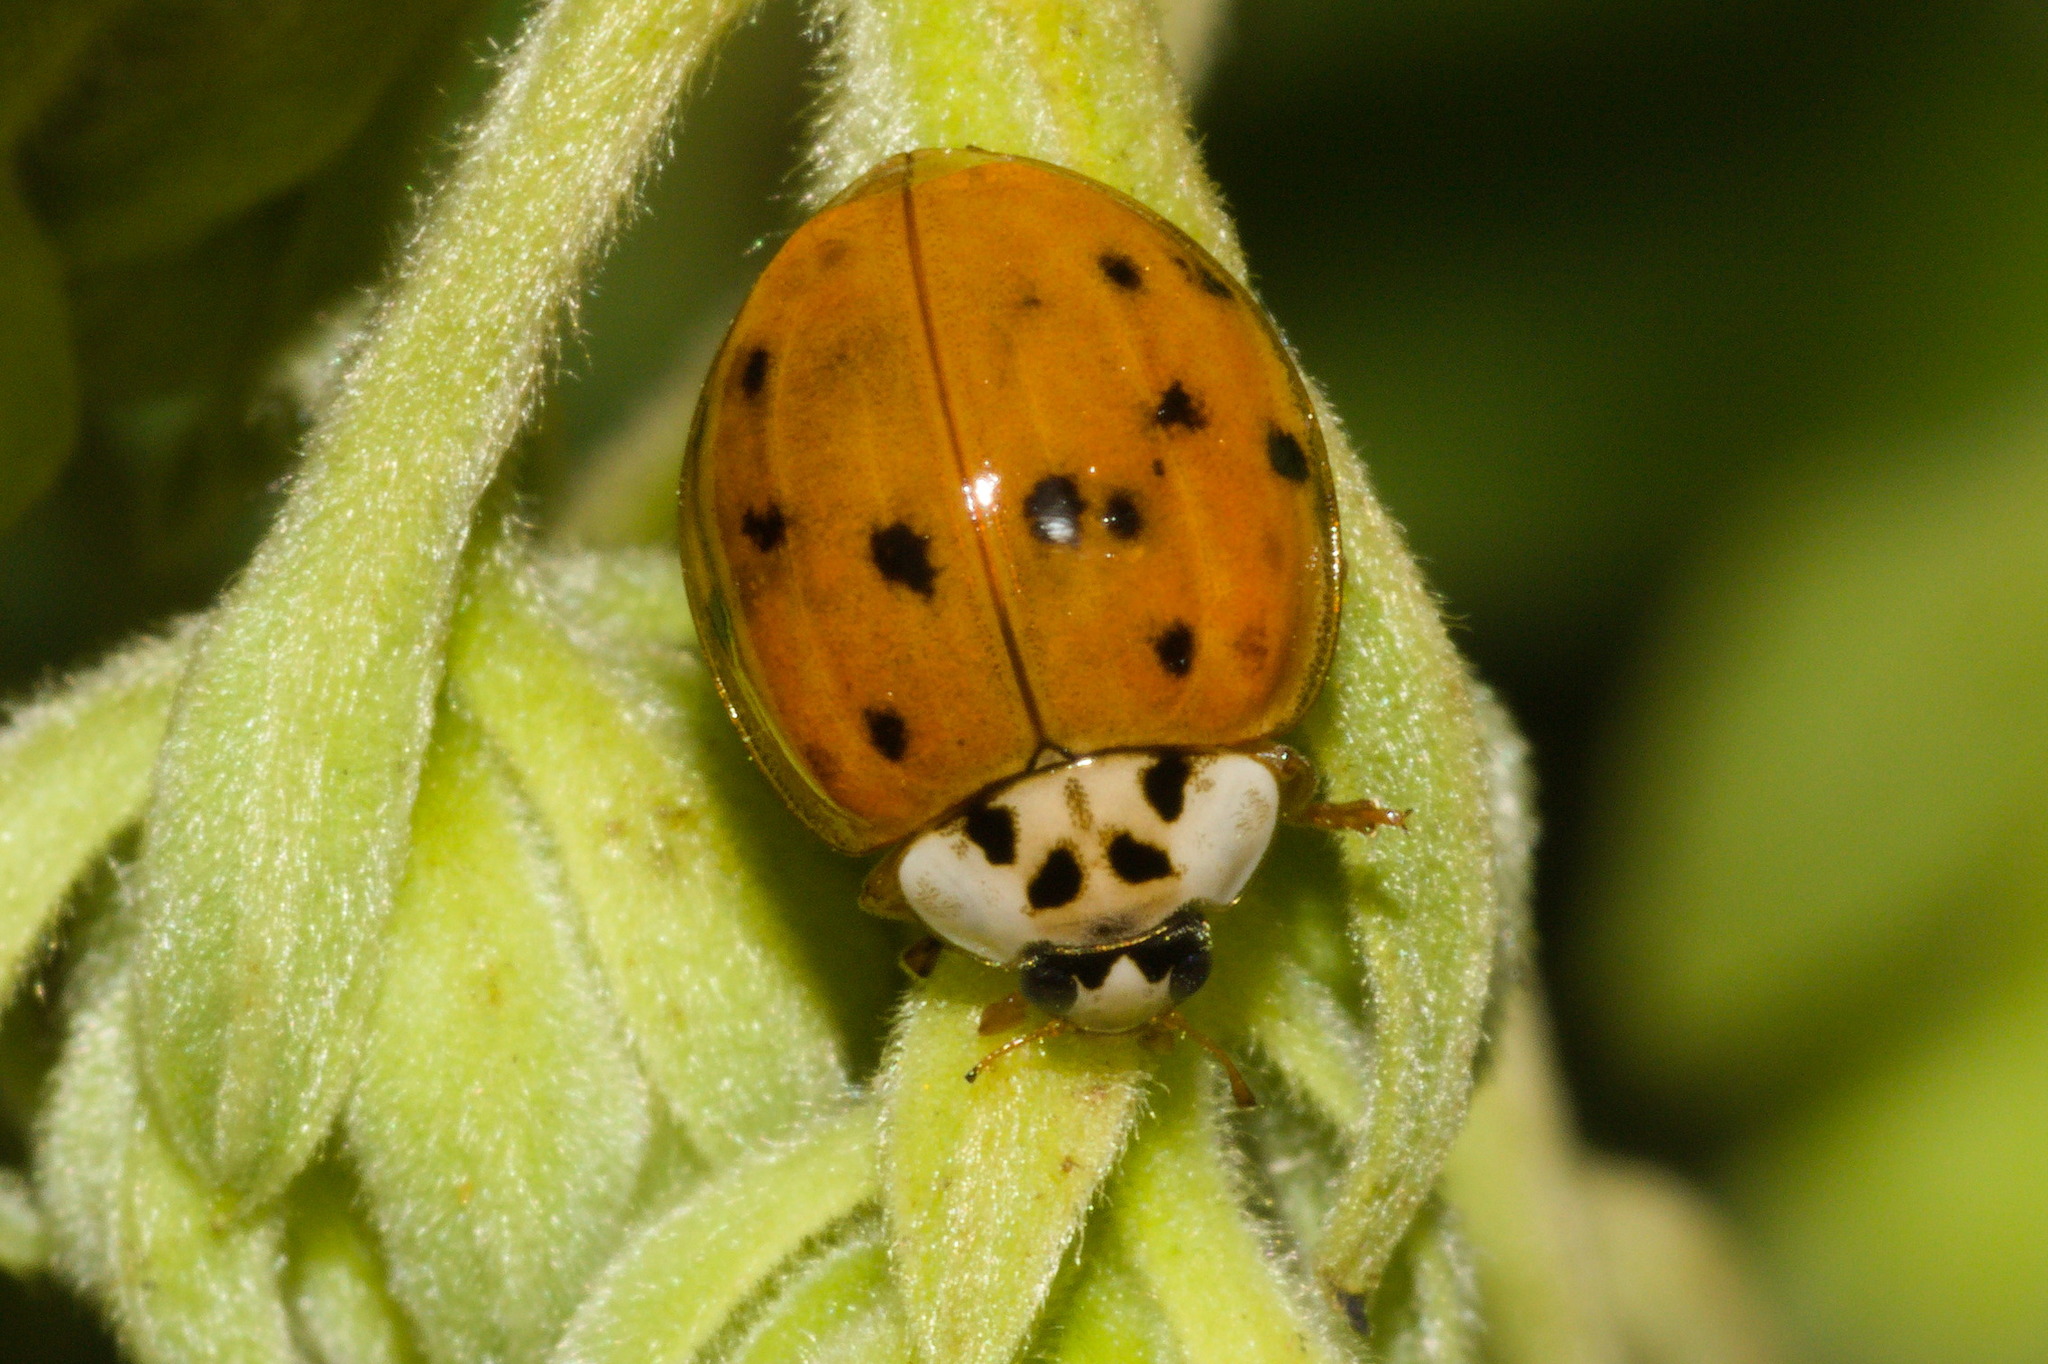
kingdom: Animalia
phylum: Arthropoda
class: Insecta
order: Coleoptera
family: Coccinellidae
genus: Harmonia
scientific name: Harmonia axyridis
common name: Harlequin ladybird
